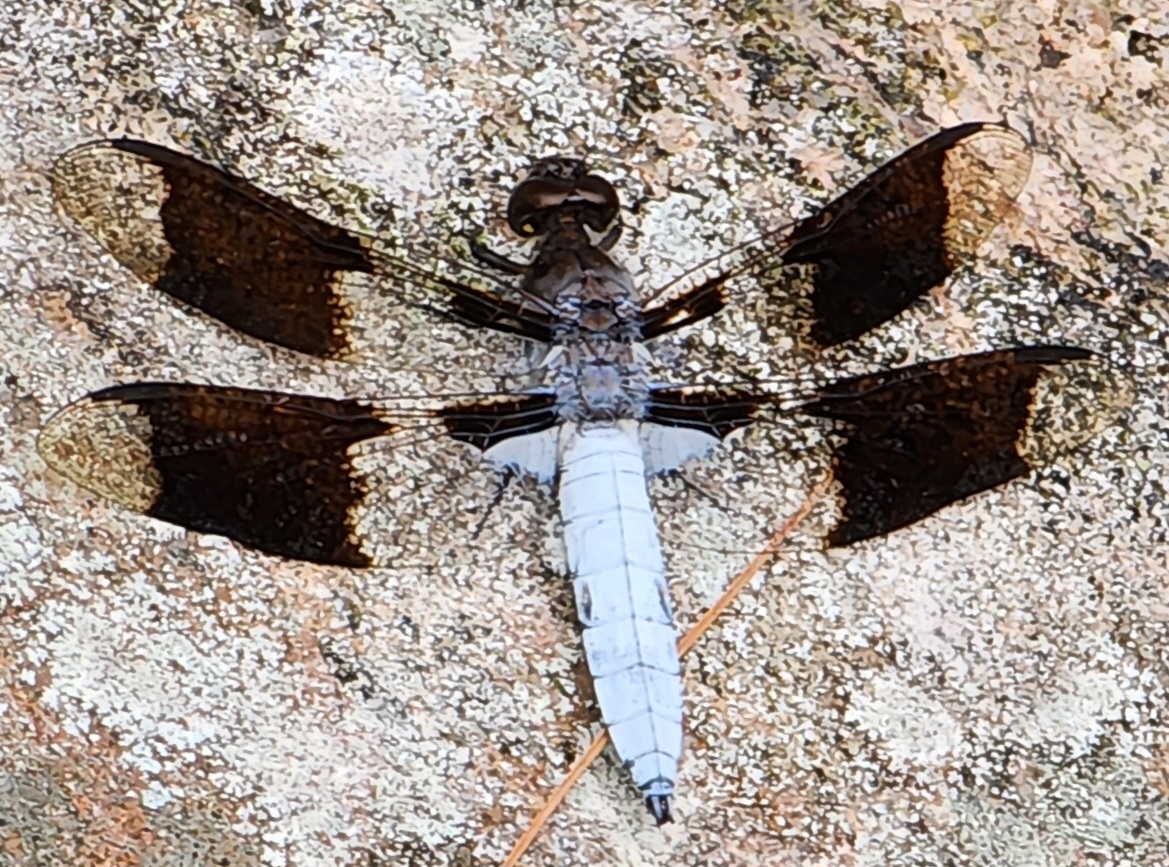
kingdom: Animalia
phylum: Arthropoda
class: Insecta
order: Odonata
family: Libellulidae
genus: Plathemis
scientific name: Plathemis lydia
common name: Common whitetail
